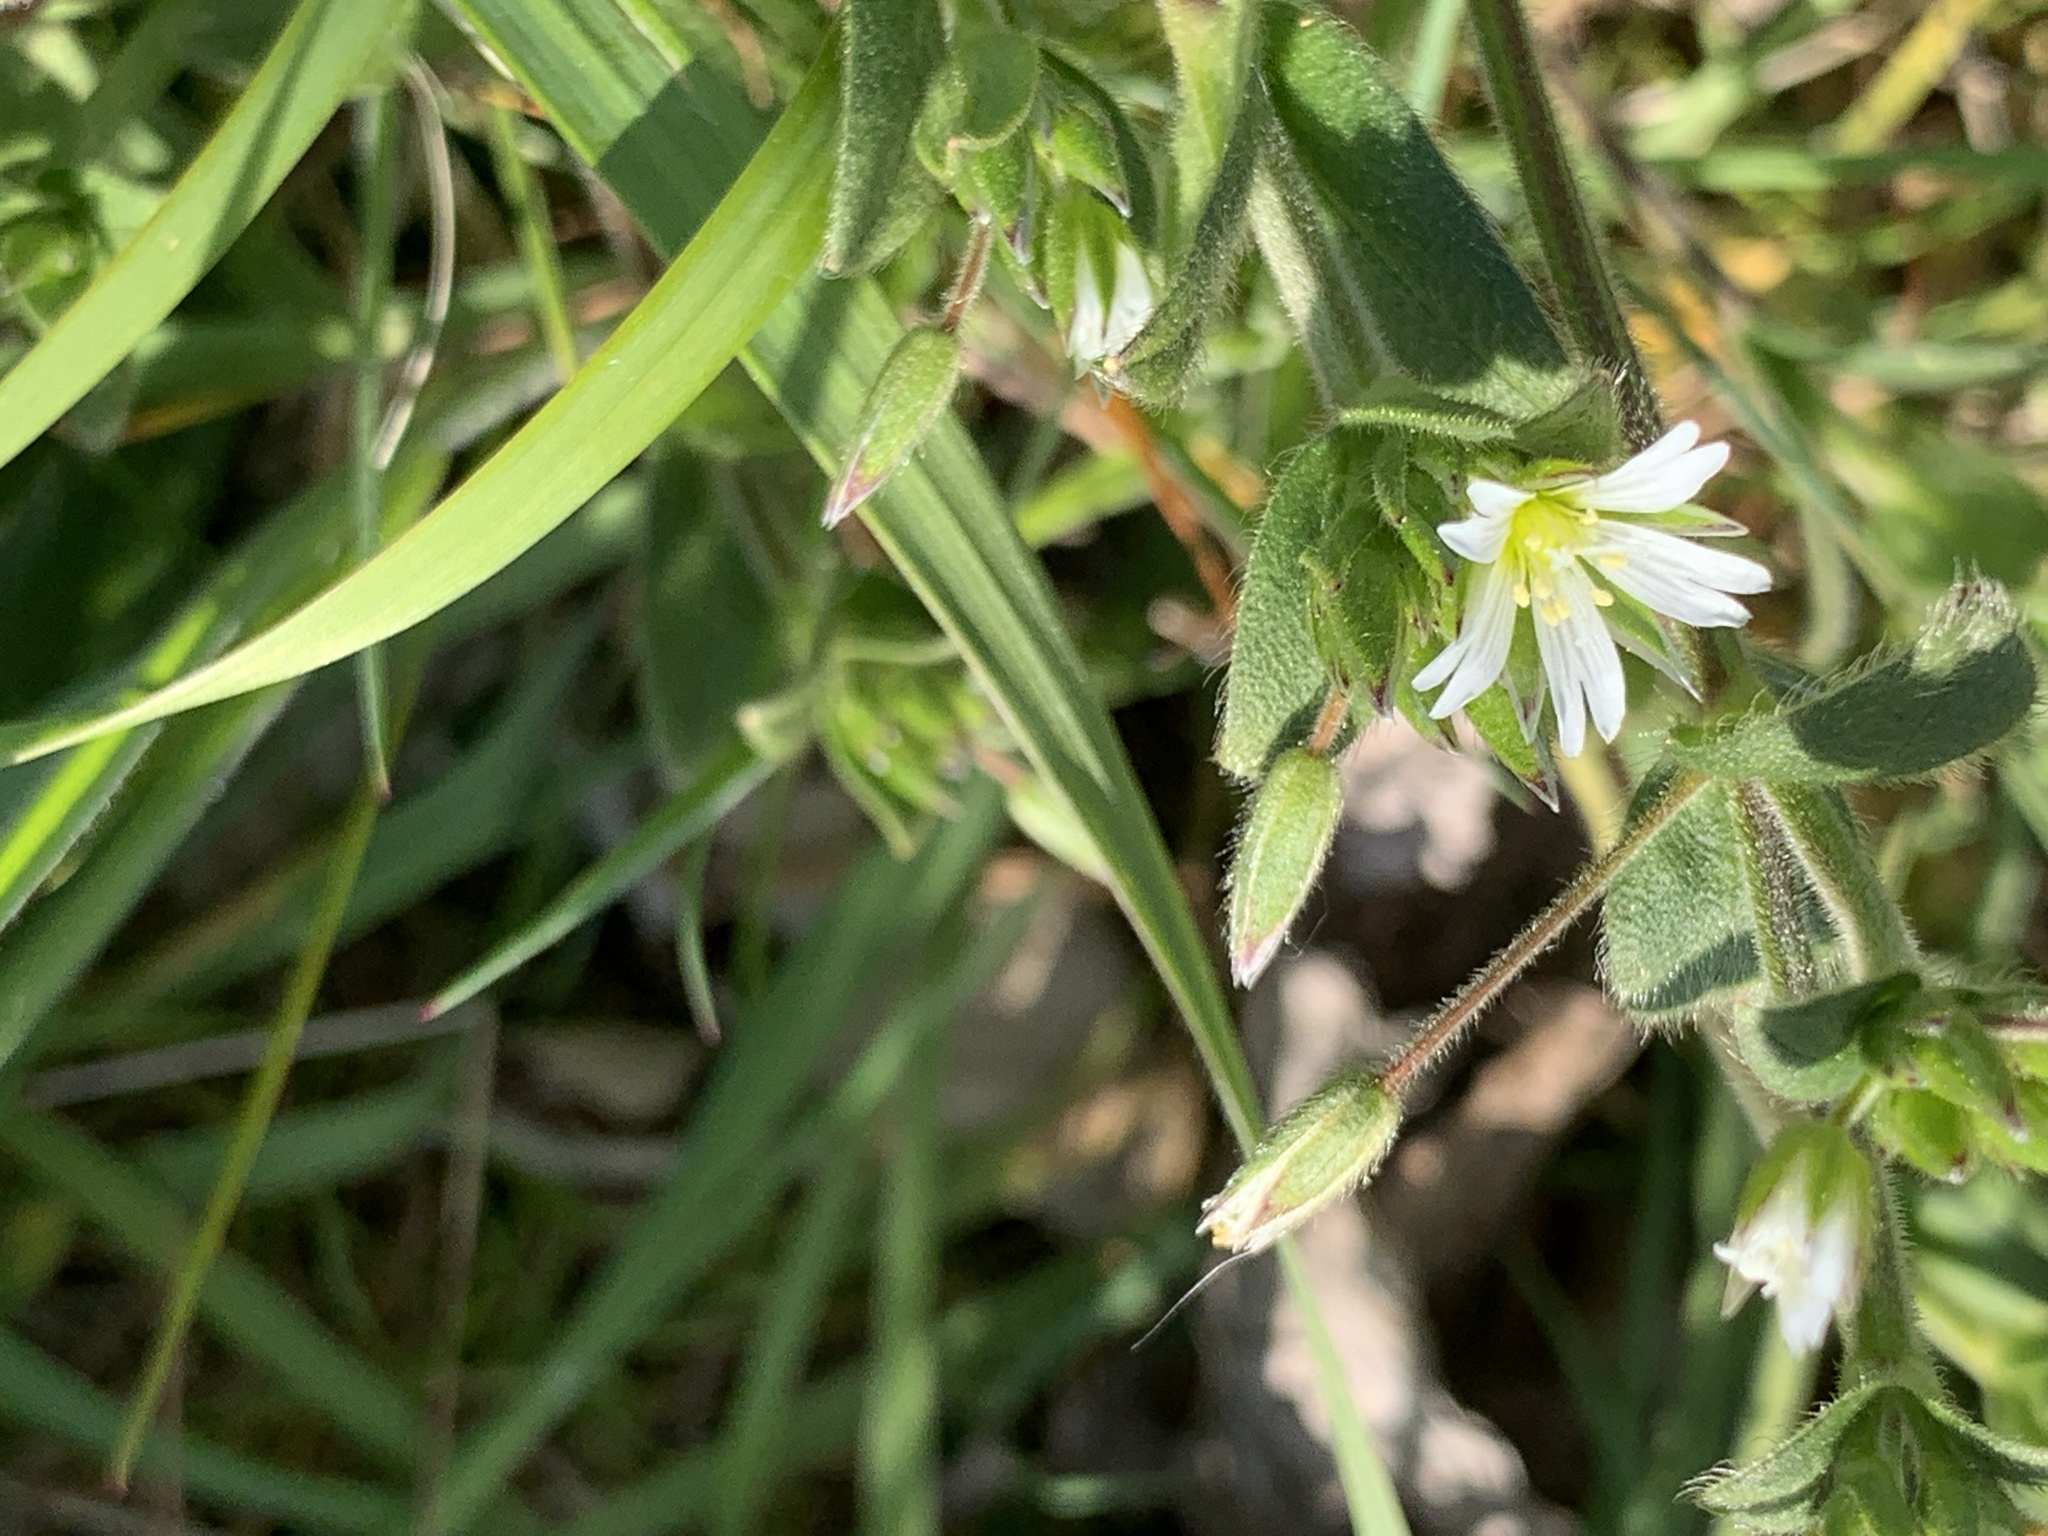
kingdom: Plantae
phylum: Tracheophyta
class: Magnoliopsida
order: Caryophyllales
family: Caryophyllaceae
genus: Cerastium
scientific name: Cerastium fontanum
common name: Common mouse-ear
